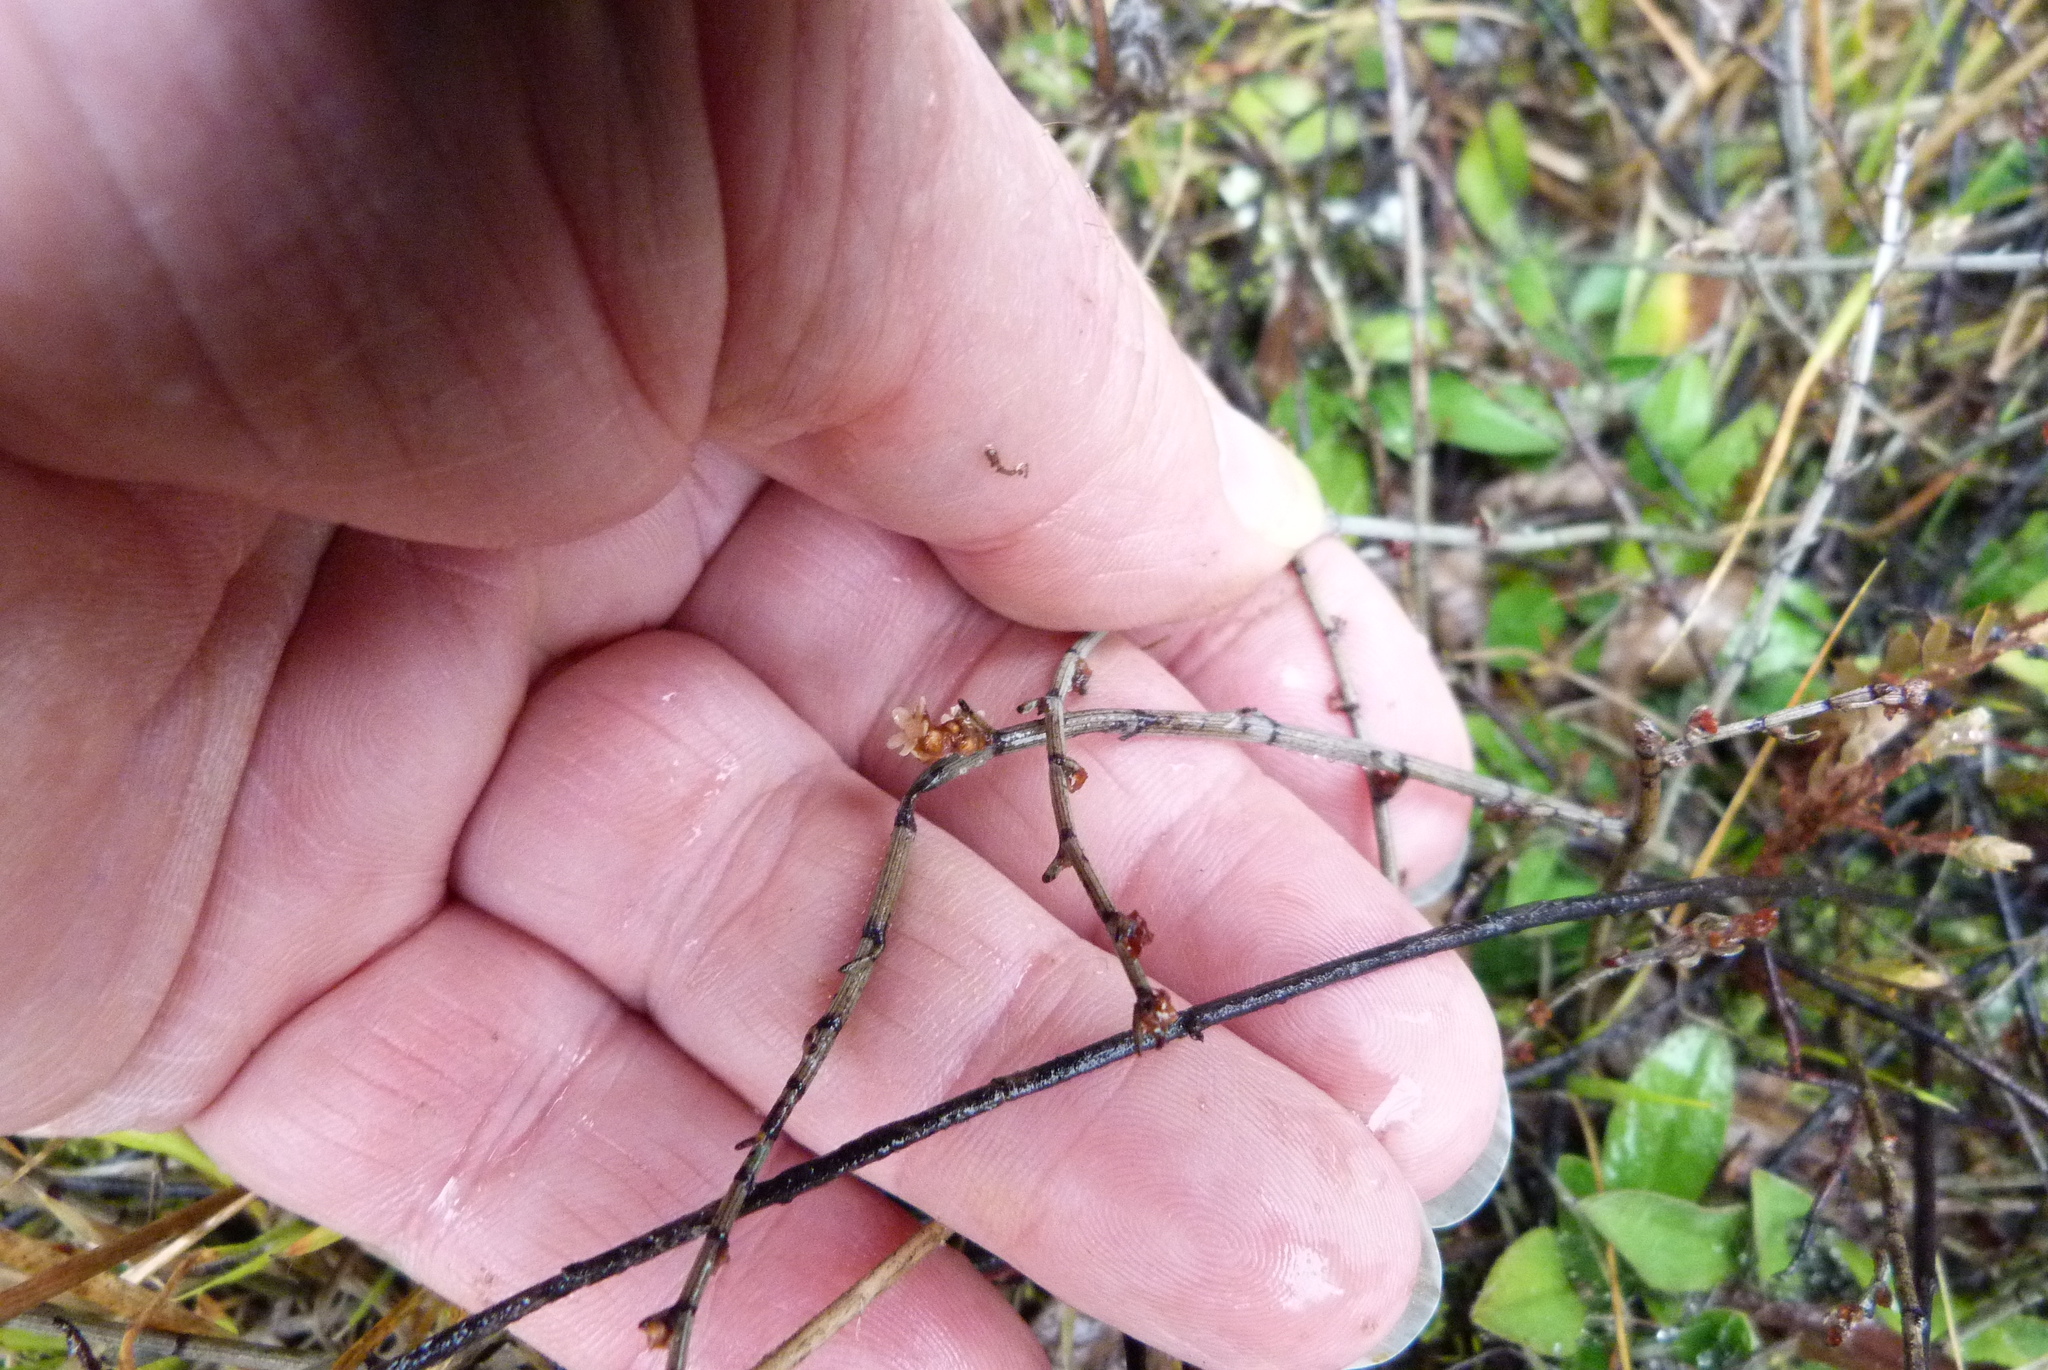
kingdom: Plantae
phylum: Tracheophyta
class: Magnoliopsida
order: Caryophyllales
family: Polygonaceae
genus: Muehlenbeckia
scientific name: Muehlenbeckia ephedroides
